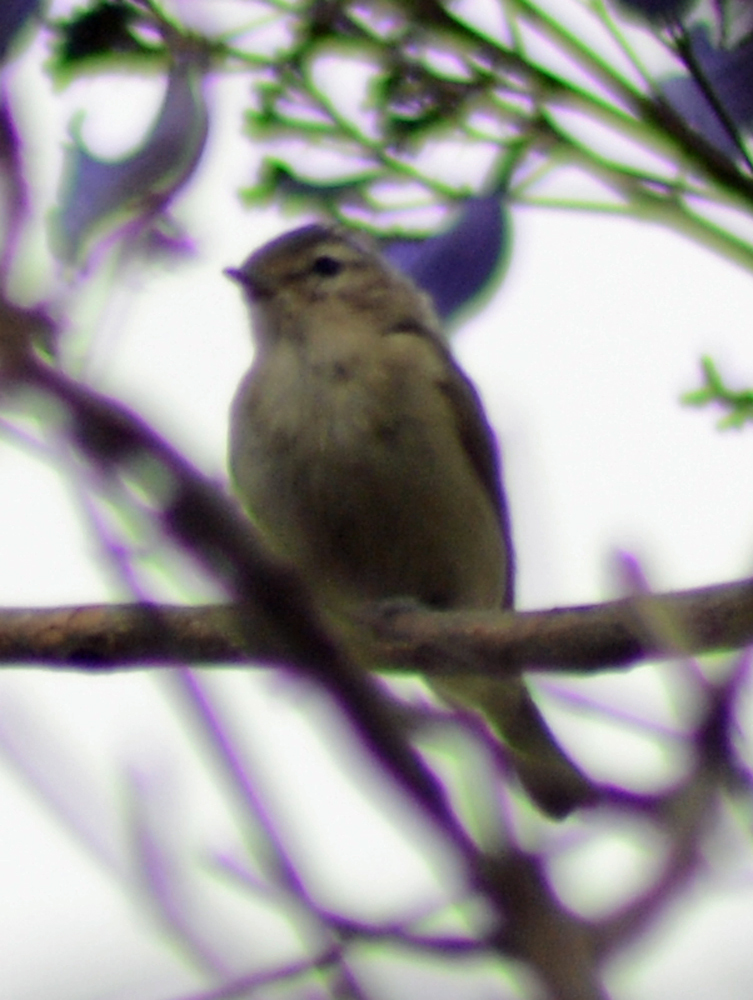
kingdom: Animalia
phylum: Chordata
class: Aves
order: Passeriformes
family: Vireonidae
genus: Vireo
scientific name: Vireo gilvus
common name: Warbling vireo
